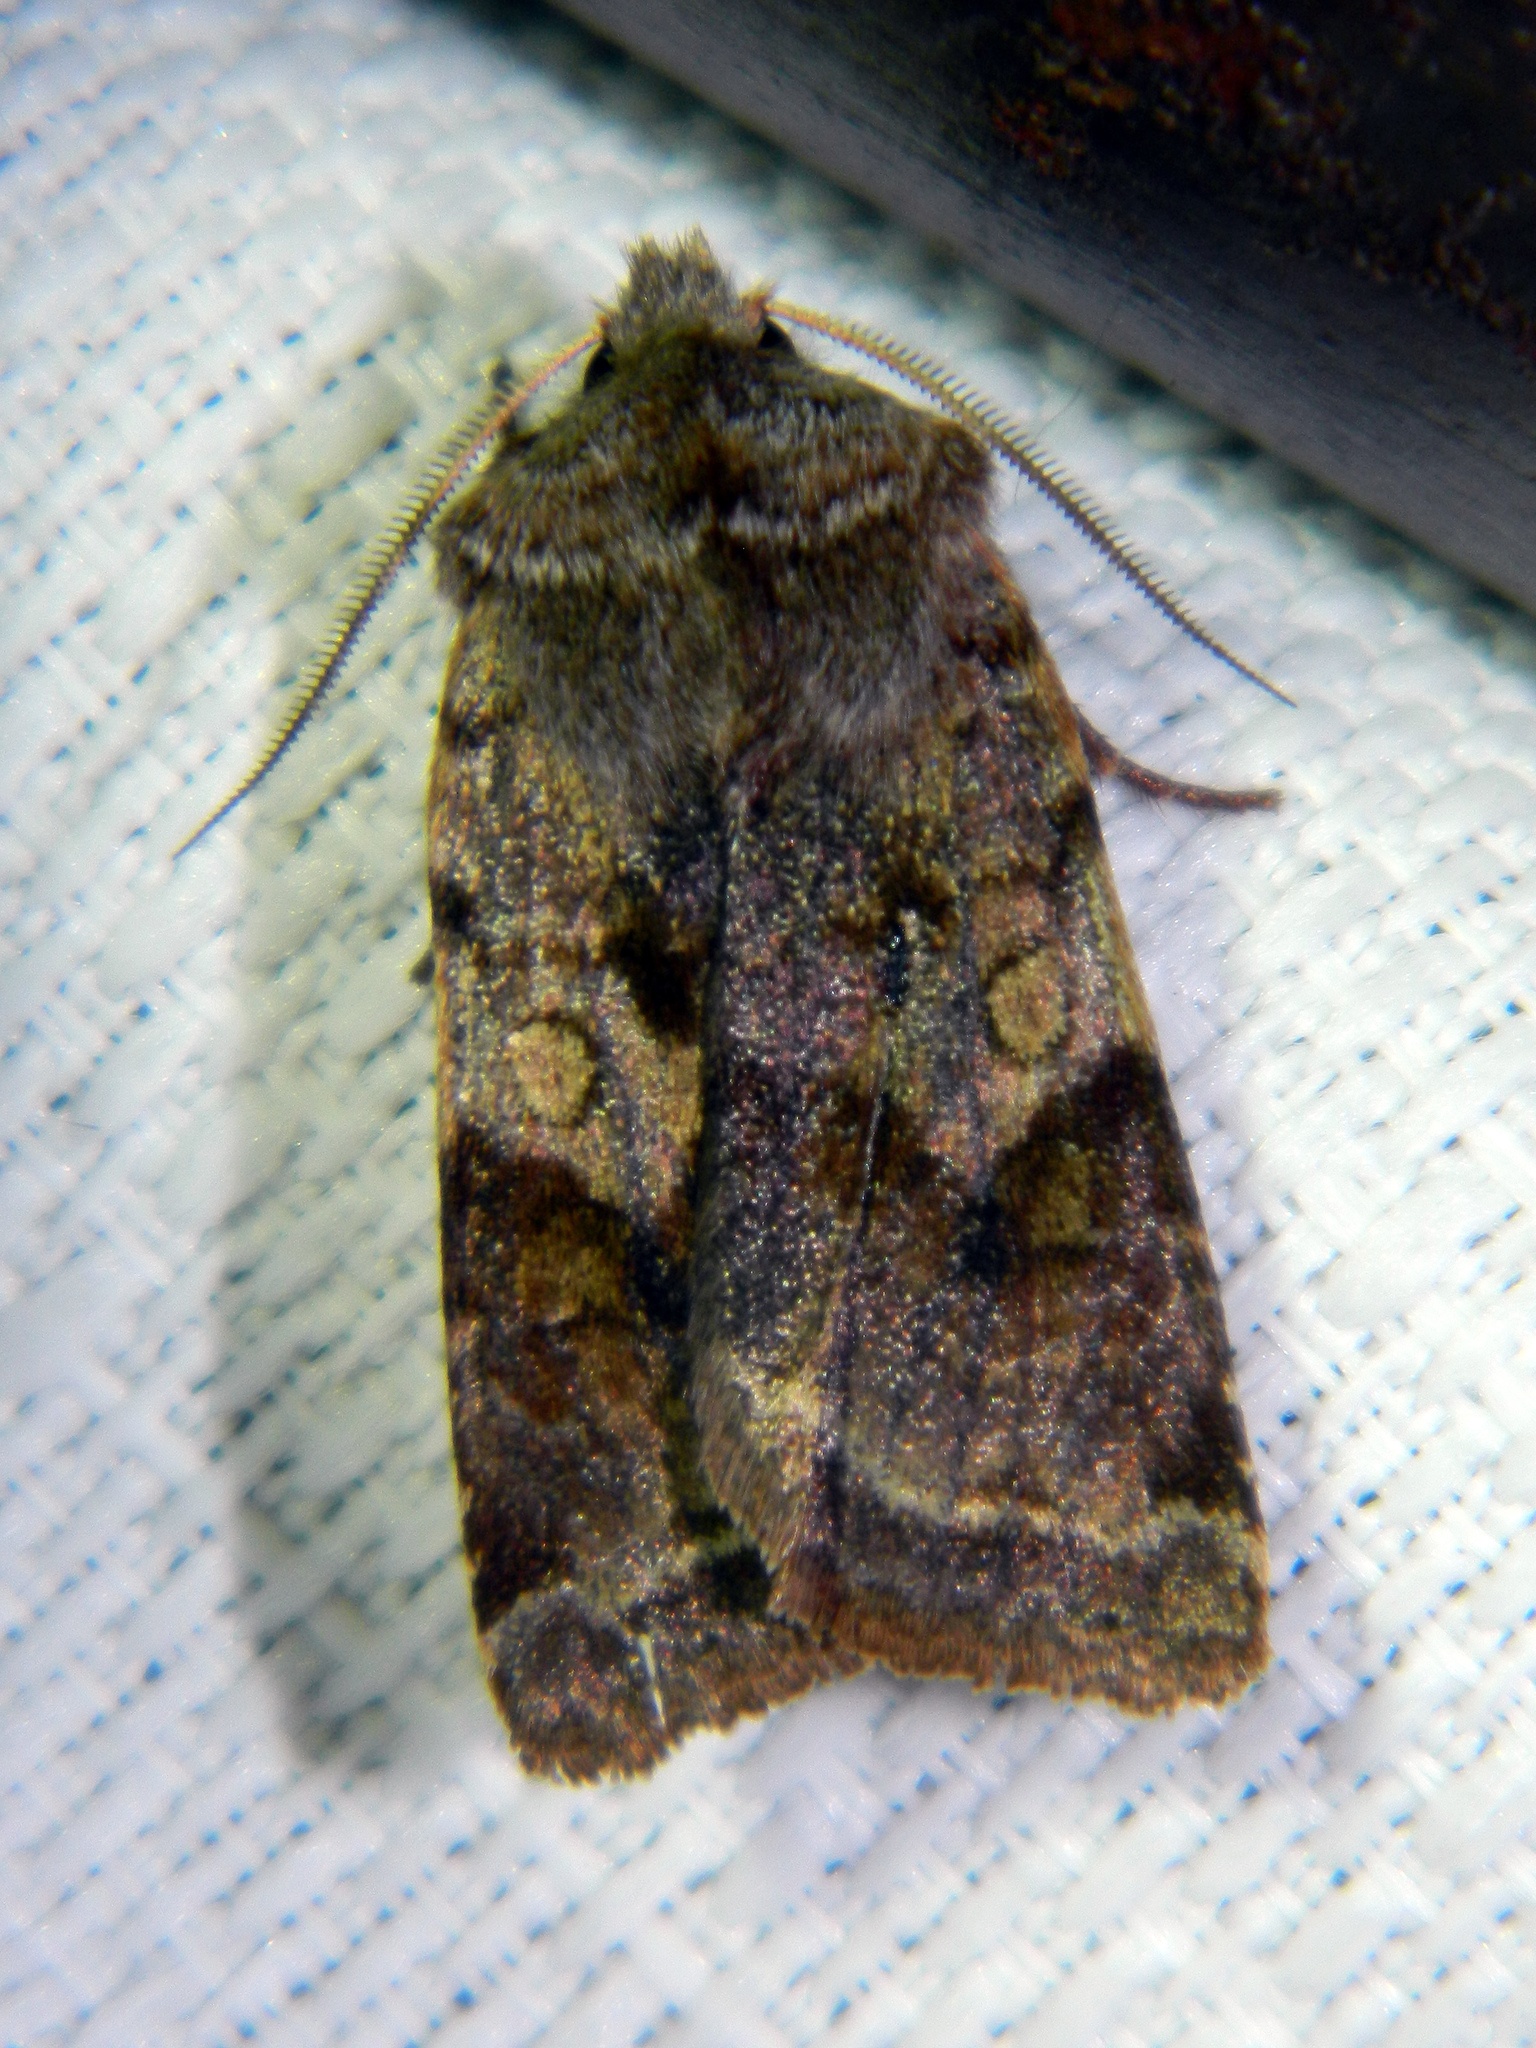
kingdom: Animalia
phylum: Arthropoda
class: Insecta
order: Lepidoptera
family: Noctuidae
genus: Cerastis
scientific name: Cerastis salicarum
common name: Willow dart
